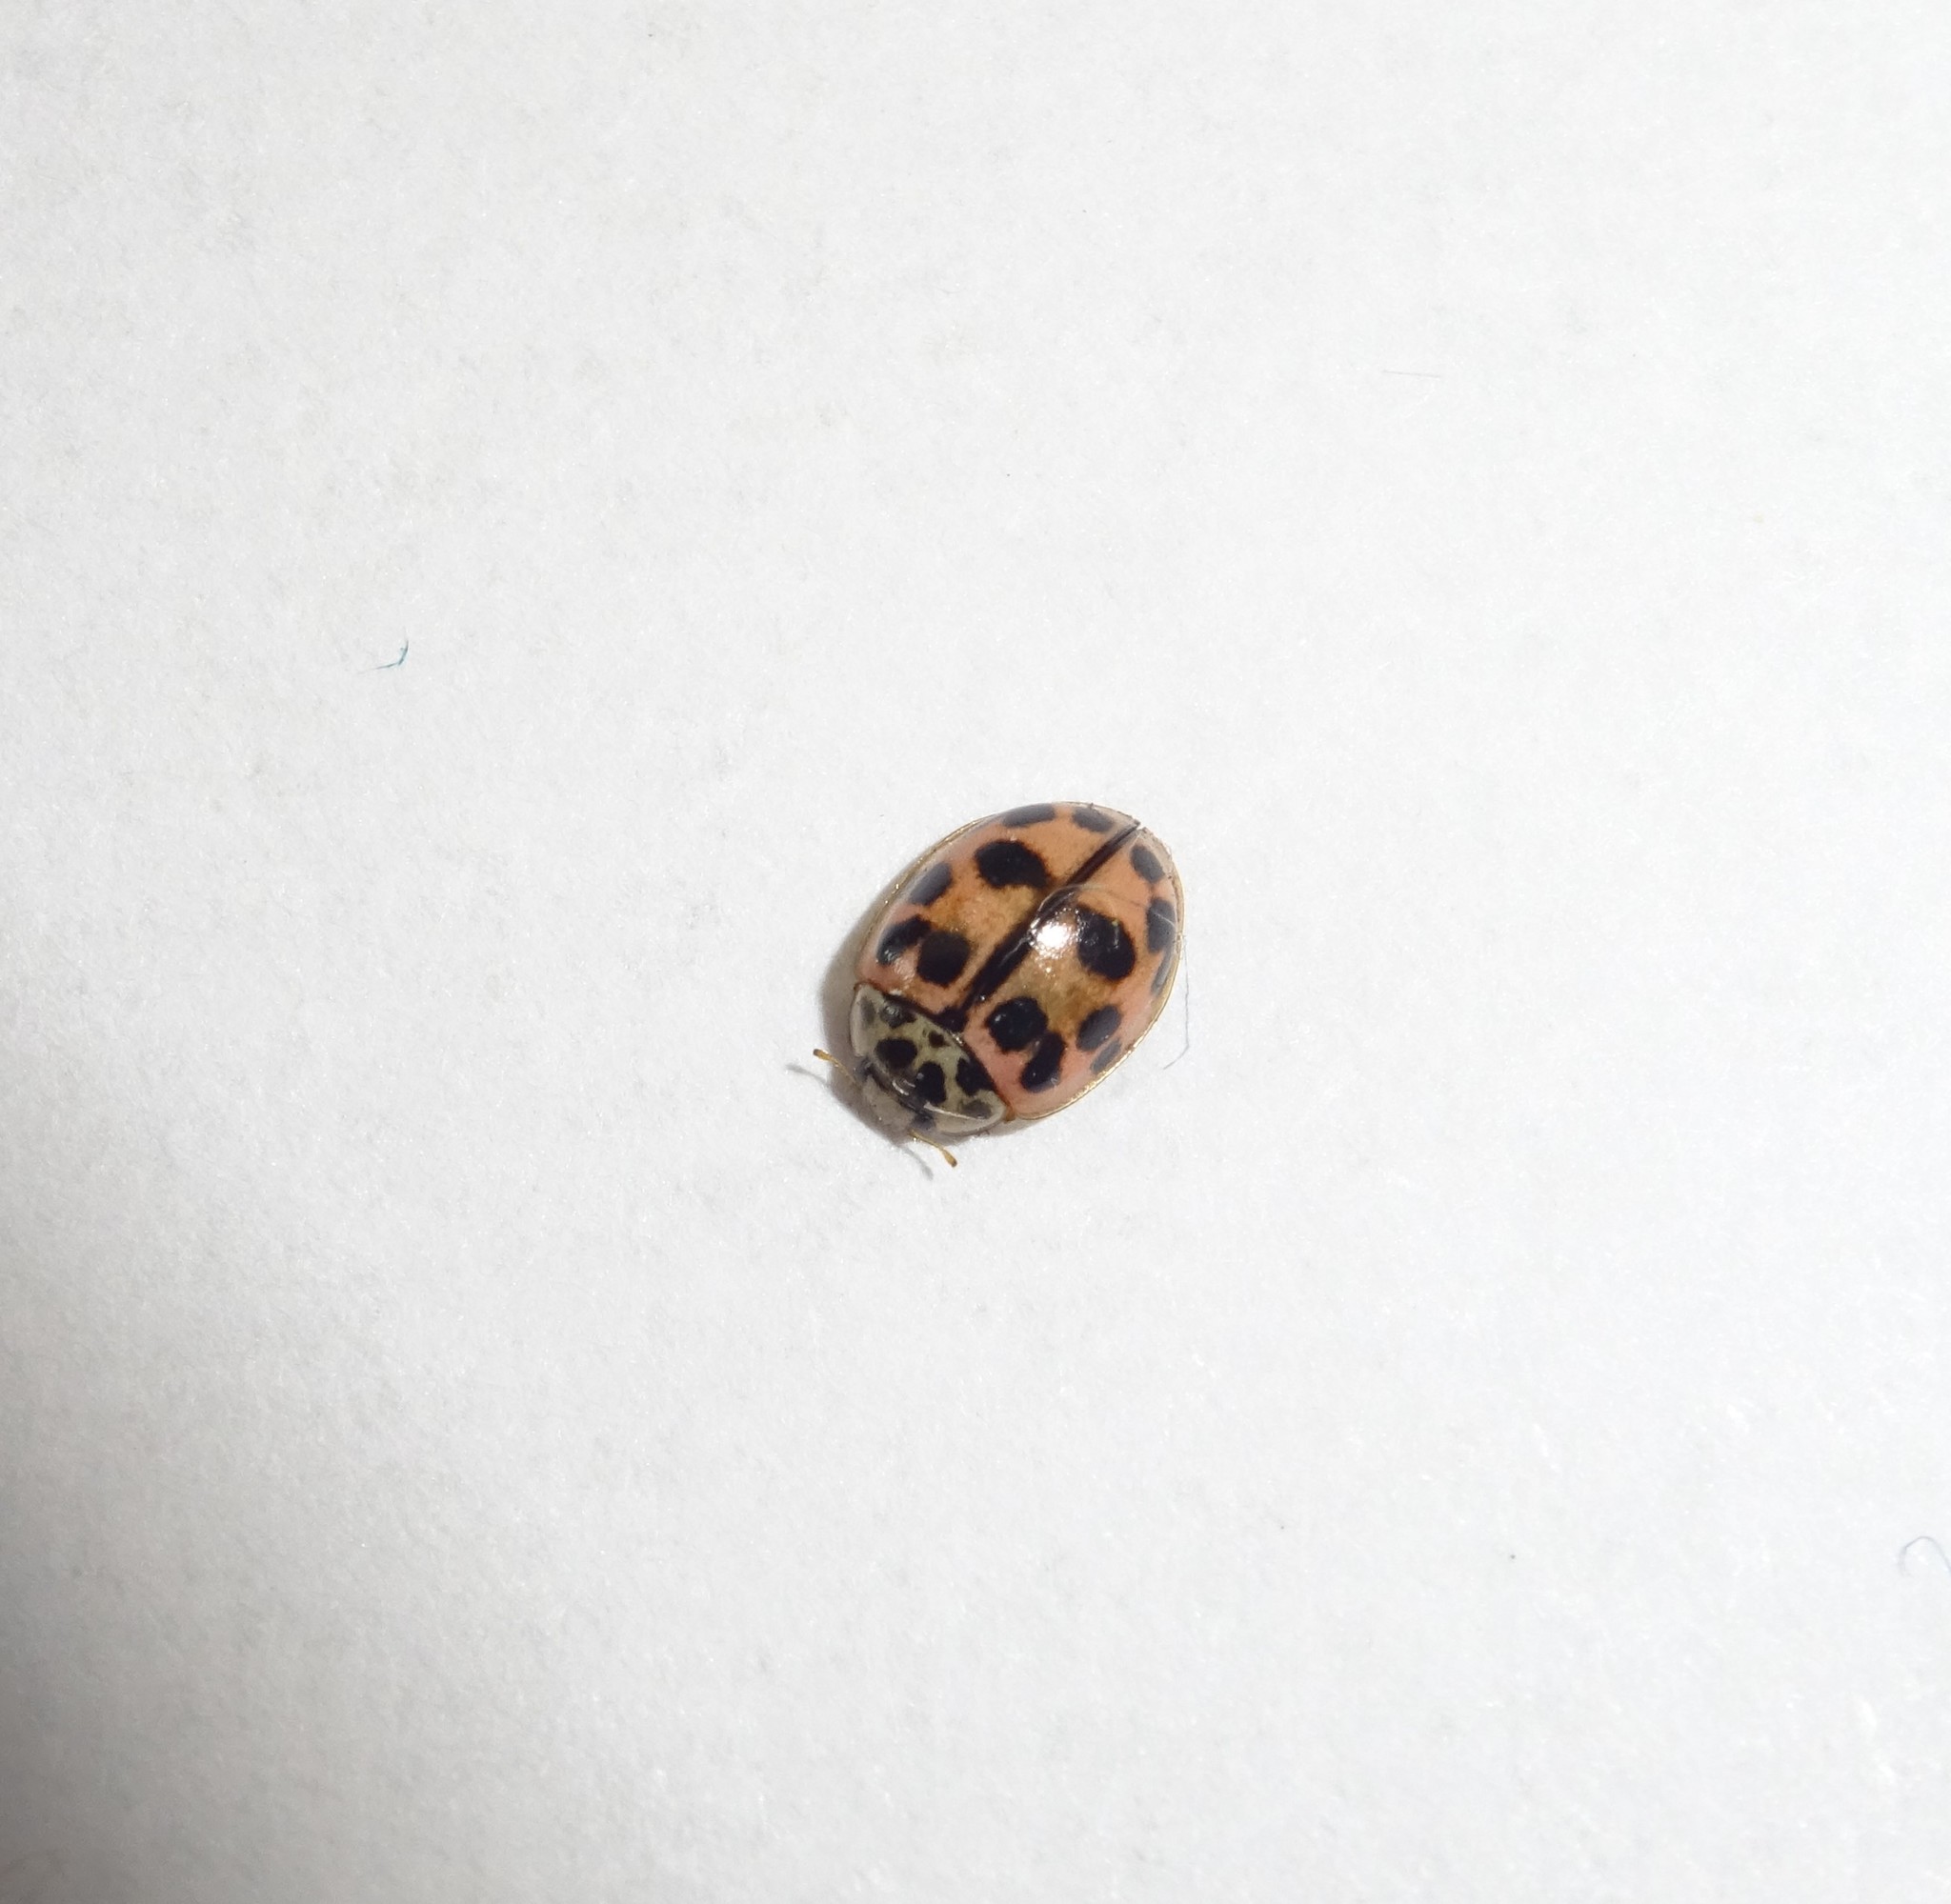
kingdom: Animalia
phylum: Arthropoda
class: Insecta
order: Coleoptera
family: Coccinellidae
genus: Oenopia
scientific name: Oenopia conglobata
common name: Ladybird beetle
